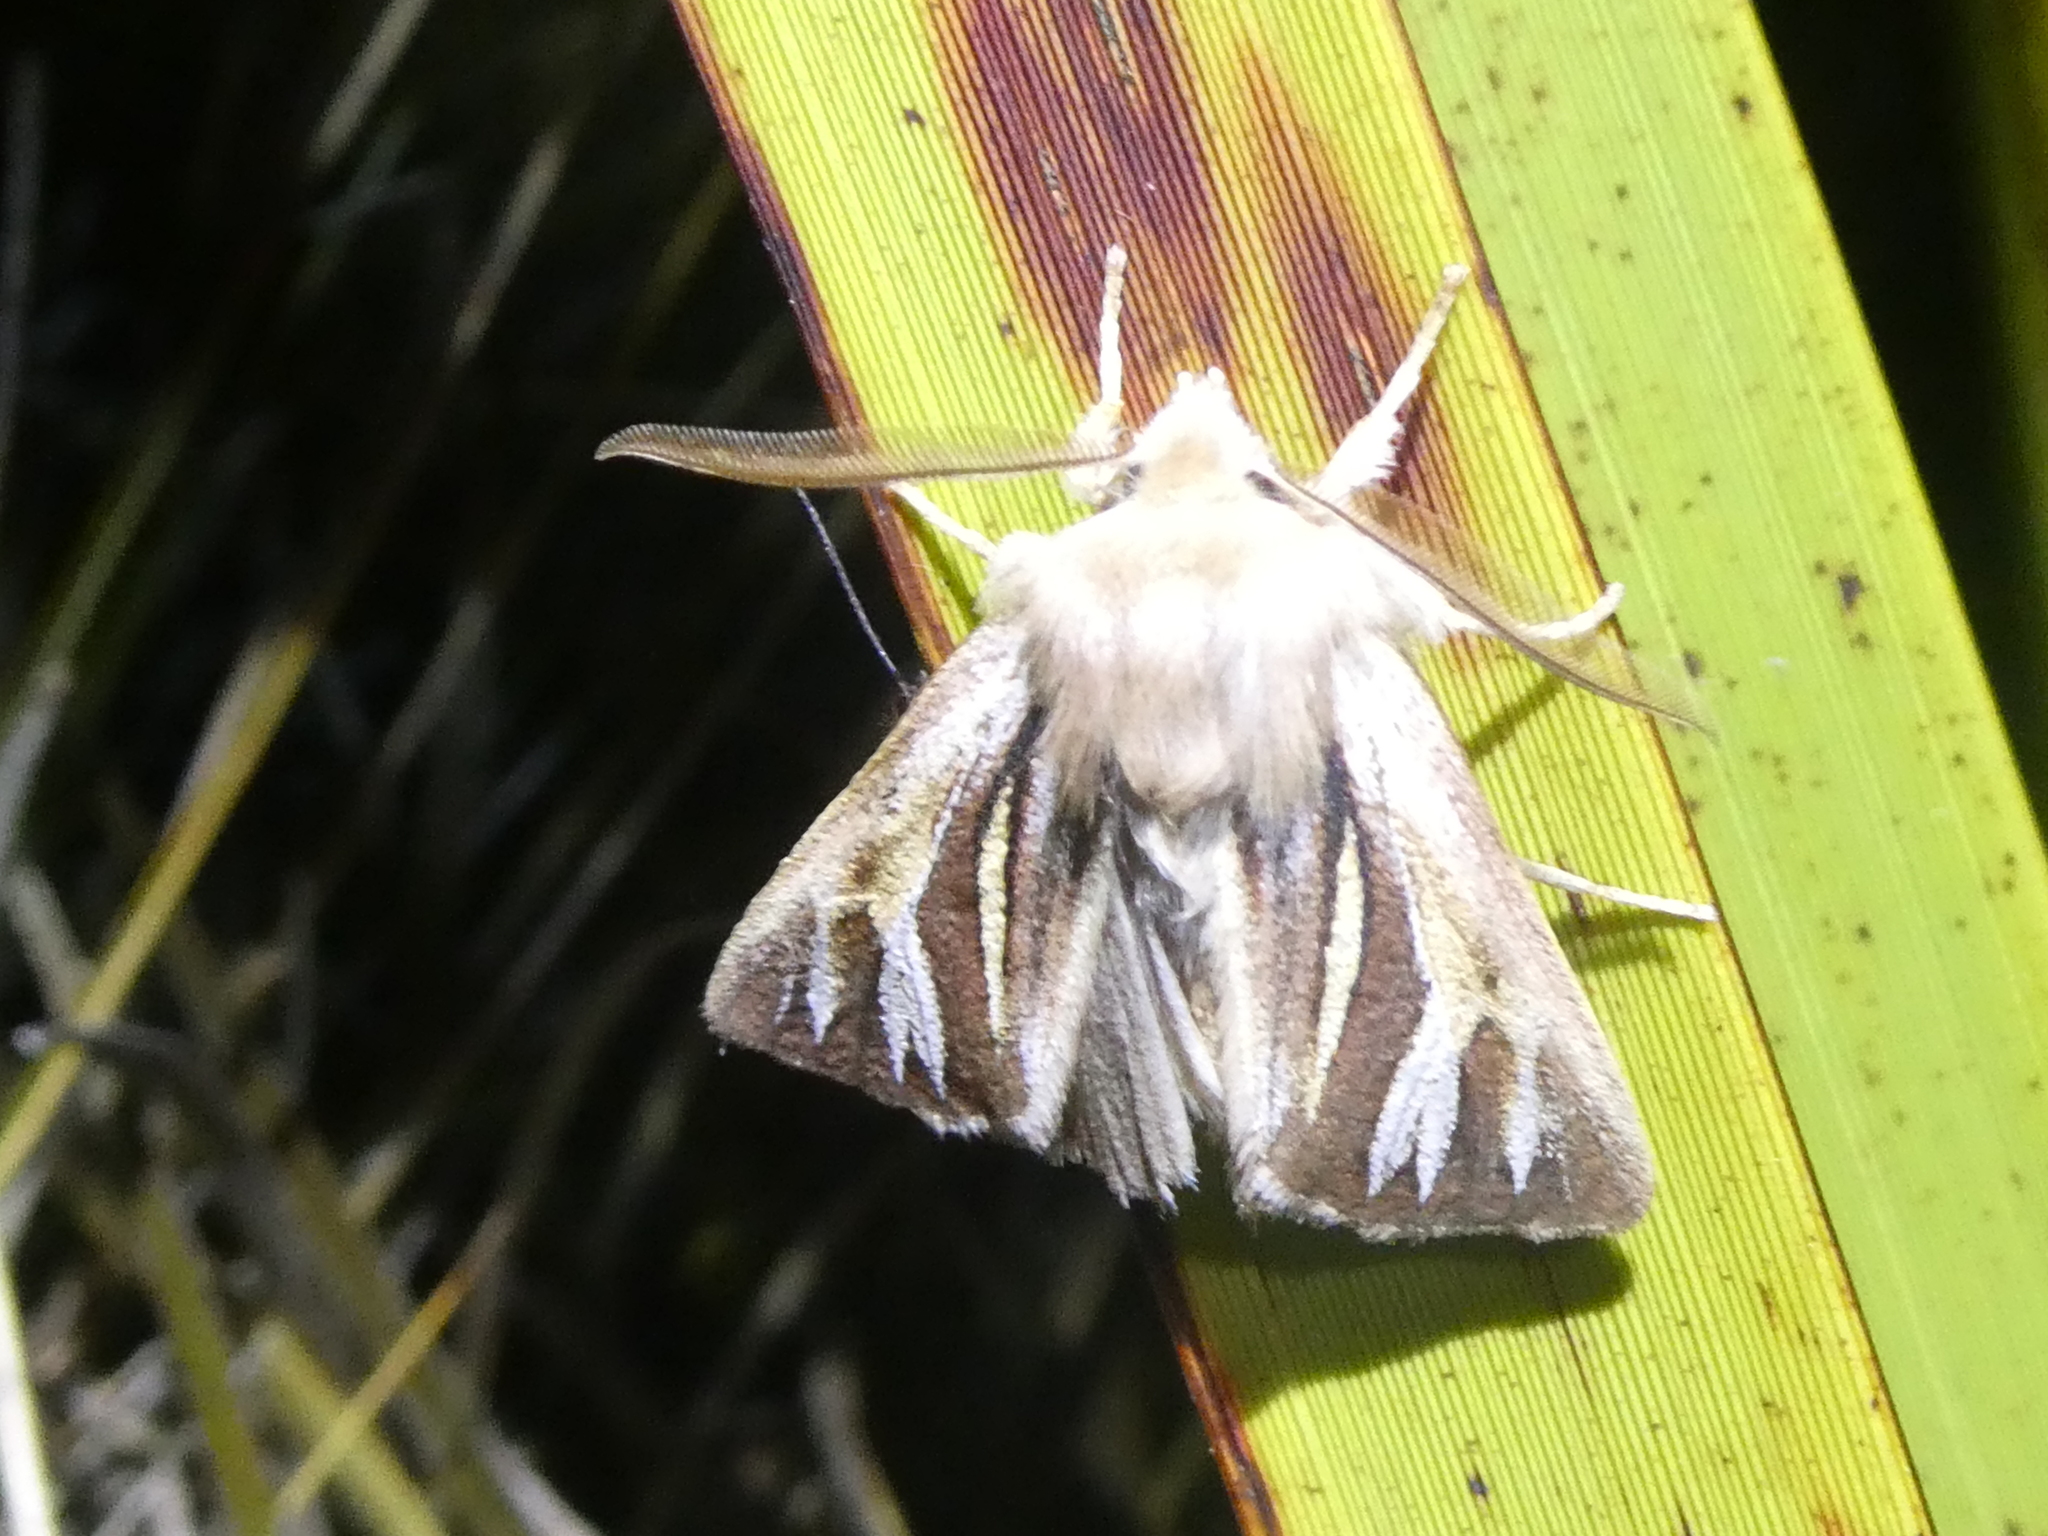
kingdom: Animalia
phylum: Arthropoda
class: Insecta
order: Lepidoptera
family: Noctuidae
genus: Ichneutica
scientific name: Ichneutica caraunias
